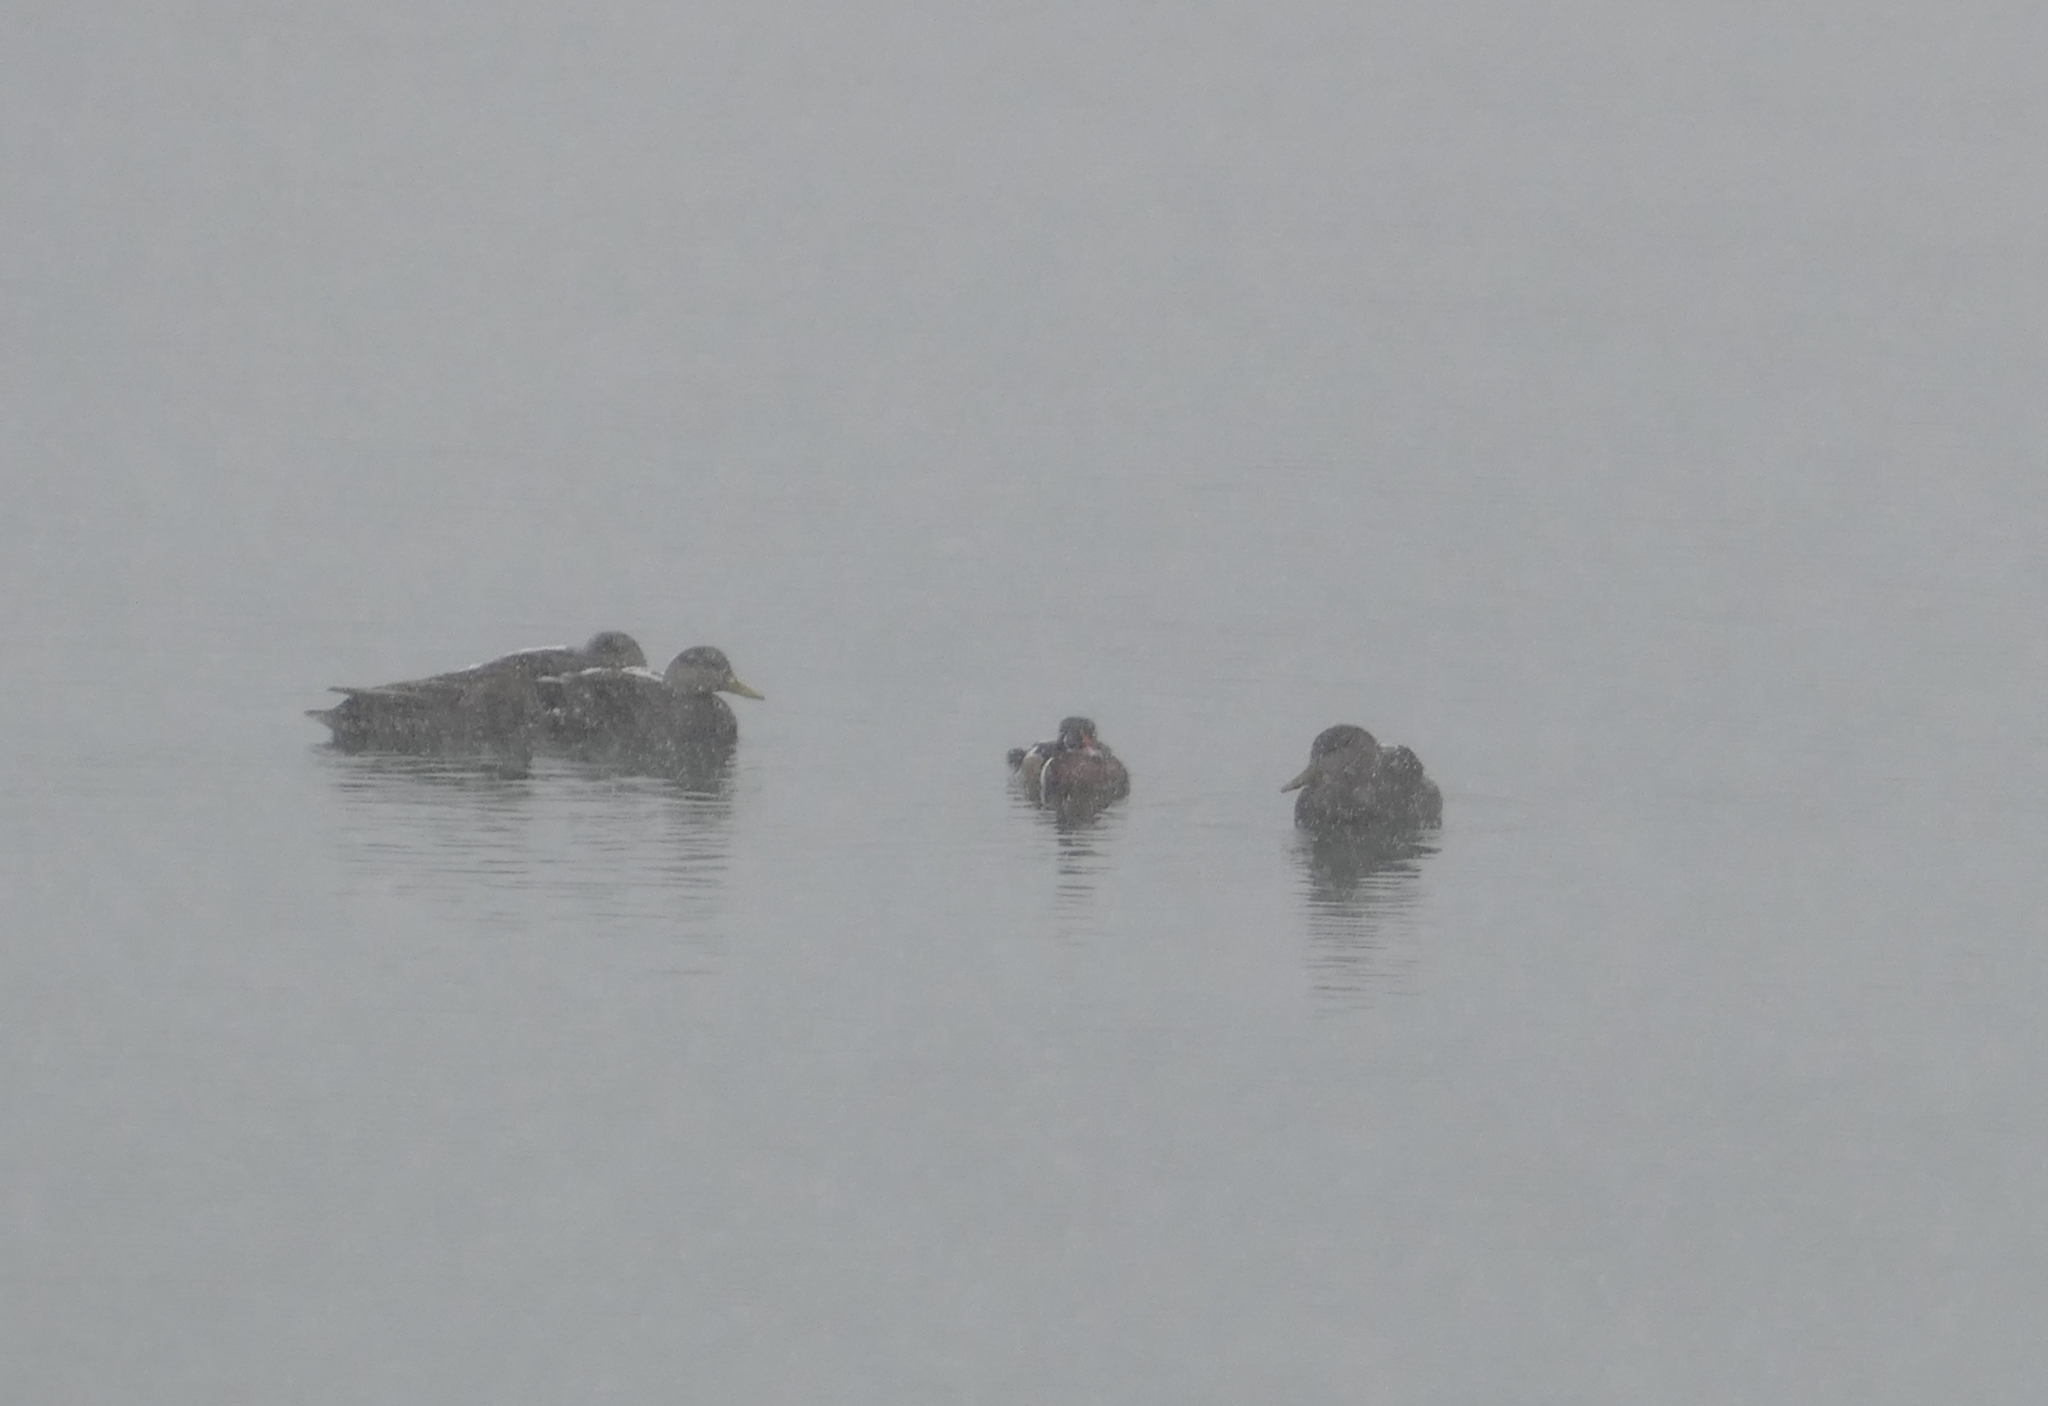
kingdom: Animalia
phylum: Chordata
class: Aves
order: Anseriformes
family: Anatidae
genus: Anas
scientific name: Anas rubripes
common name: American black duck
